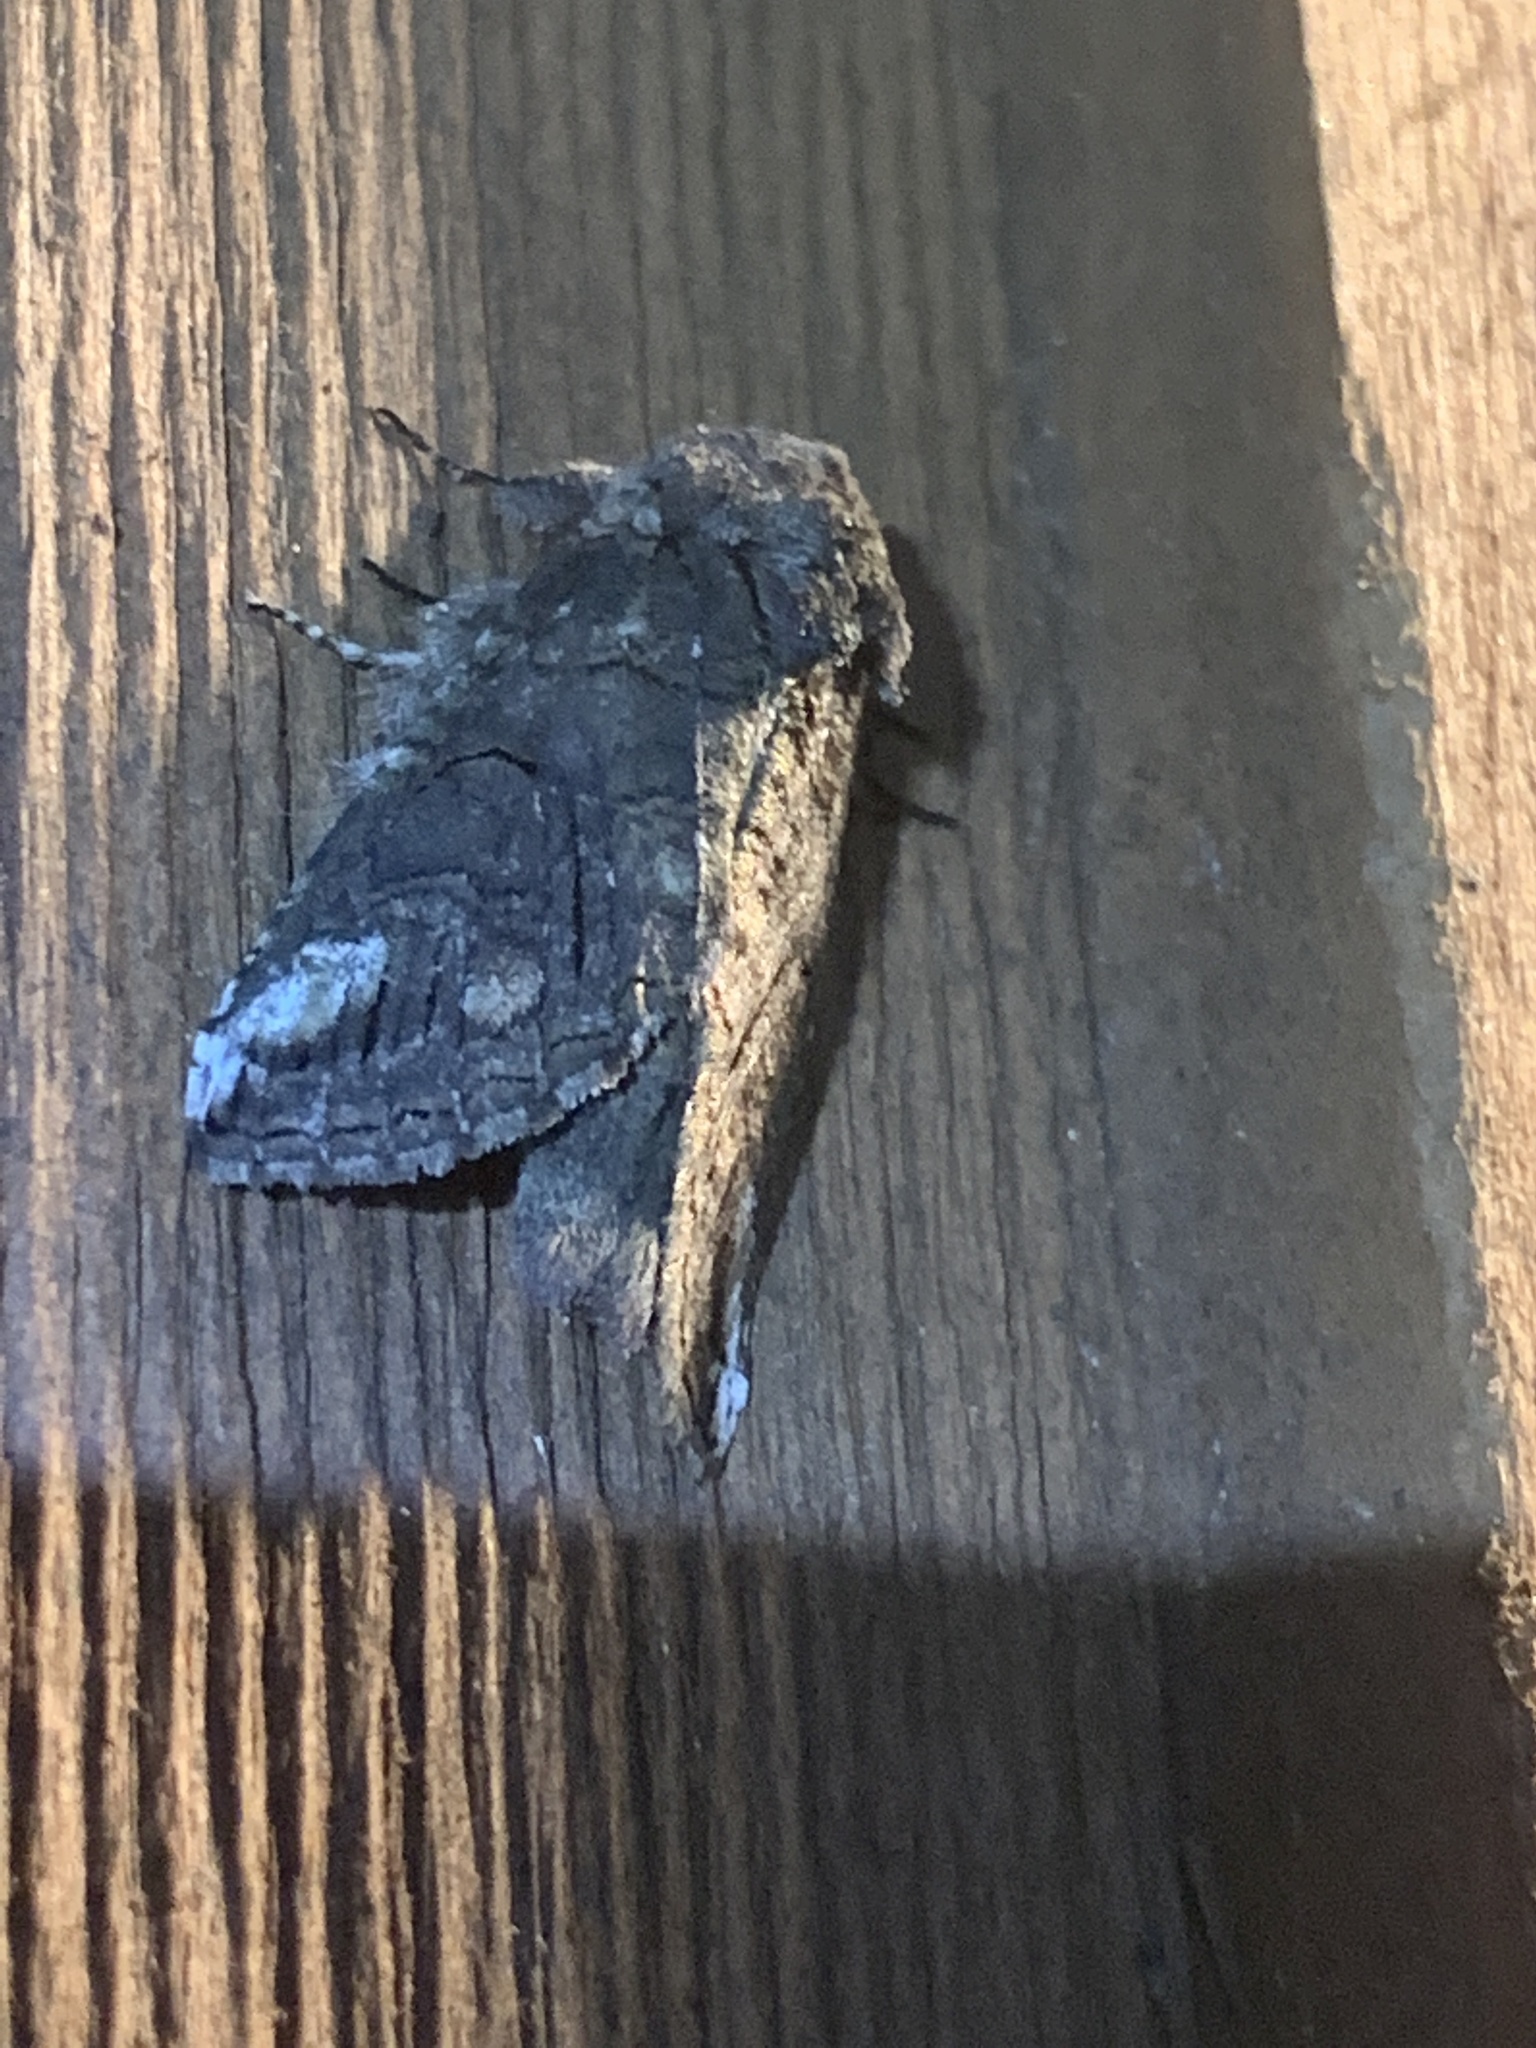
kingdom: Animalia
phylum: Arthropoda
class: Insecta
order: Lepidoptera
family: Notodontidae
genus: Heterocampa
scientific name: Heterocampa obliqua
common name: Oblique heterocampa
